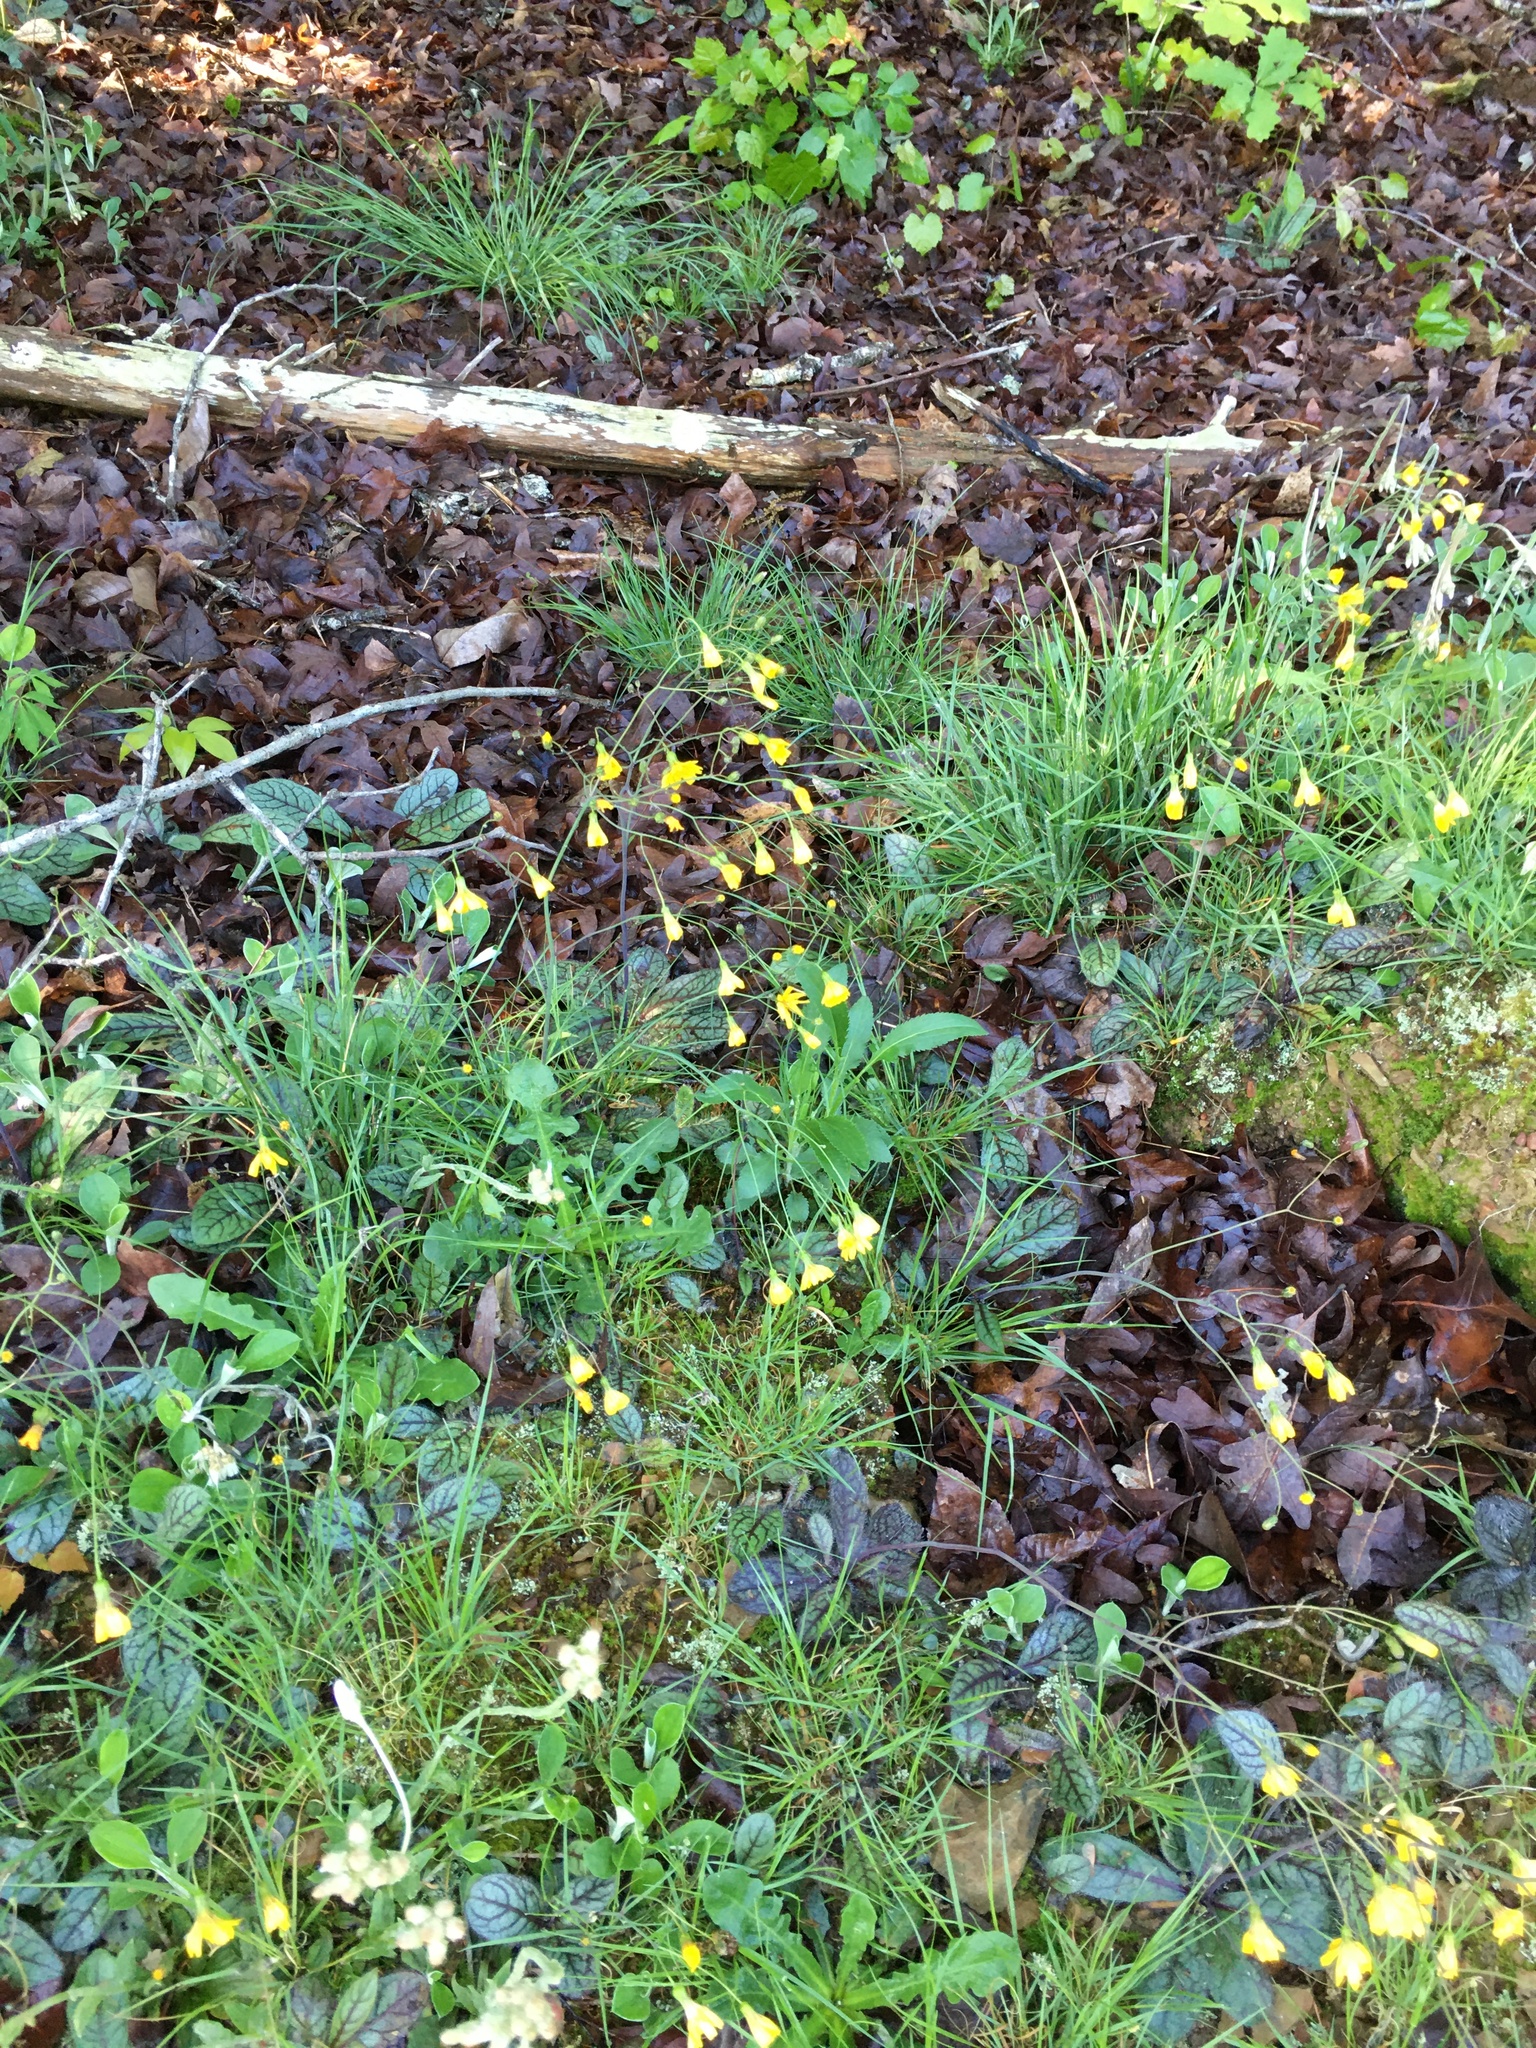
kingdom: Plantae
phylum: Tracheophyta
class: Magnoliopsida
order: Asterales
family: Asteraceae
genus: Hieracium
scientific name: Hieracium venosum
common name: Rattlesnake hawkweed
